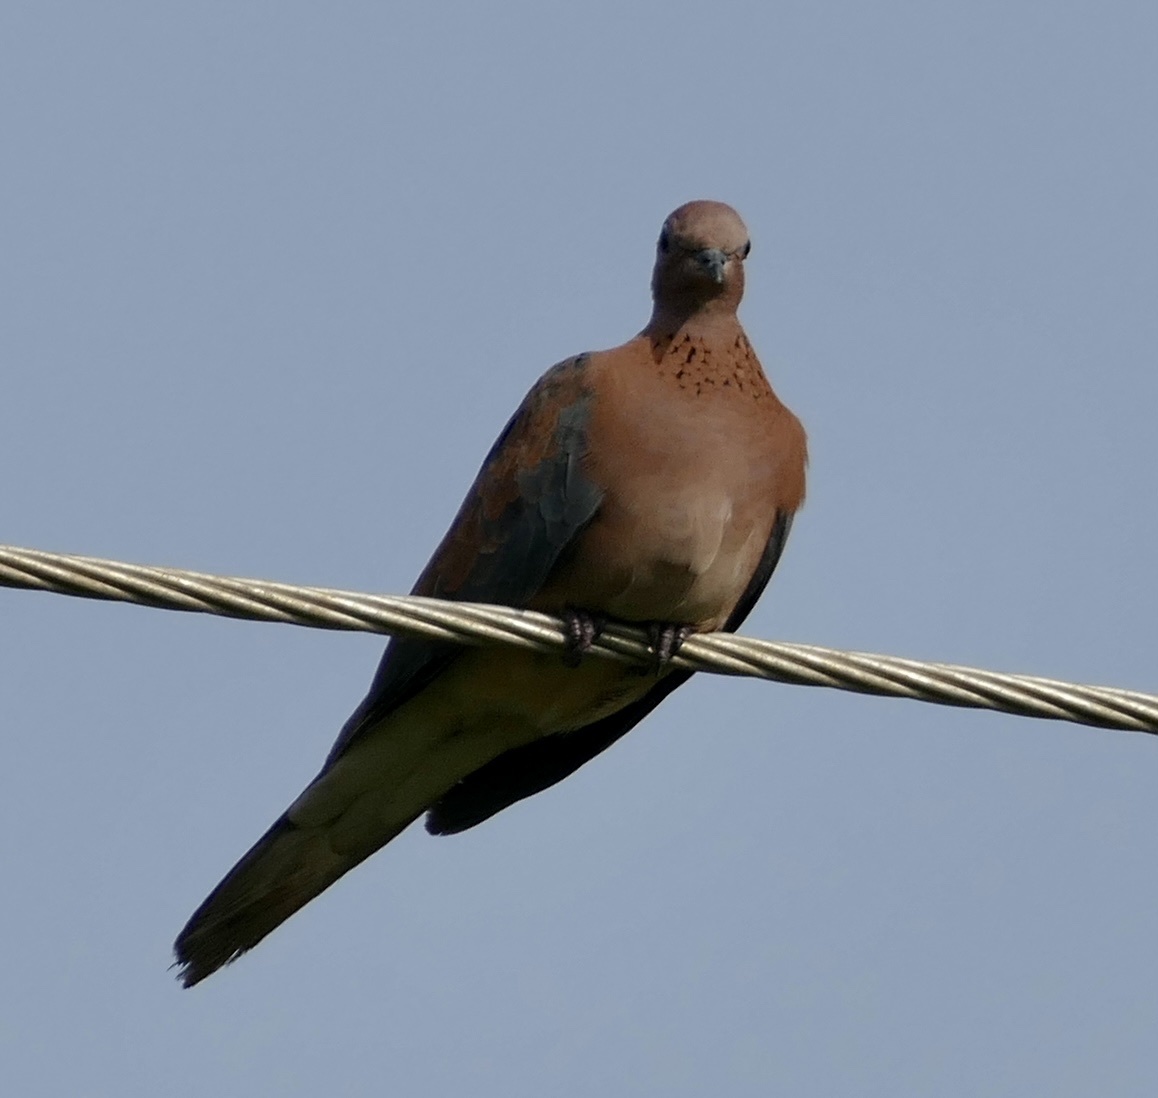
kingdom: Animalia
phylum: Chordata
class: Aves
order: Columbiformes
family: Columbidae
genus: Spilopelia
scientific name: Spilopelia senegalensis
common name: Laughing dove
